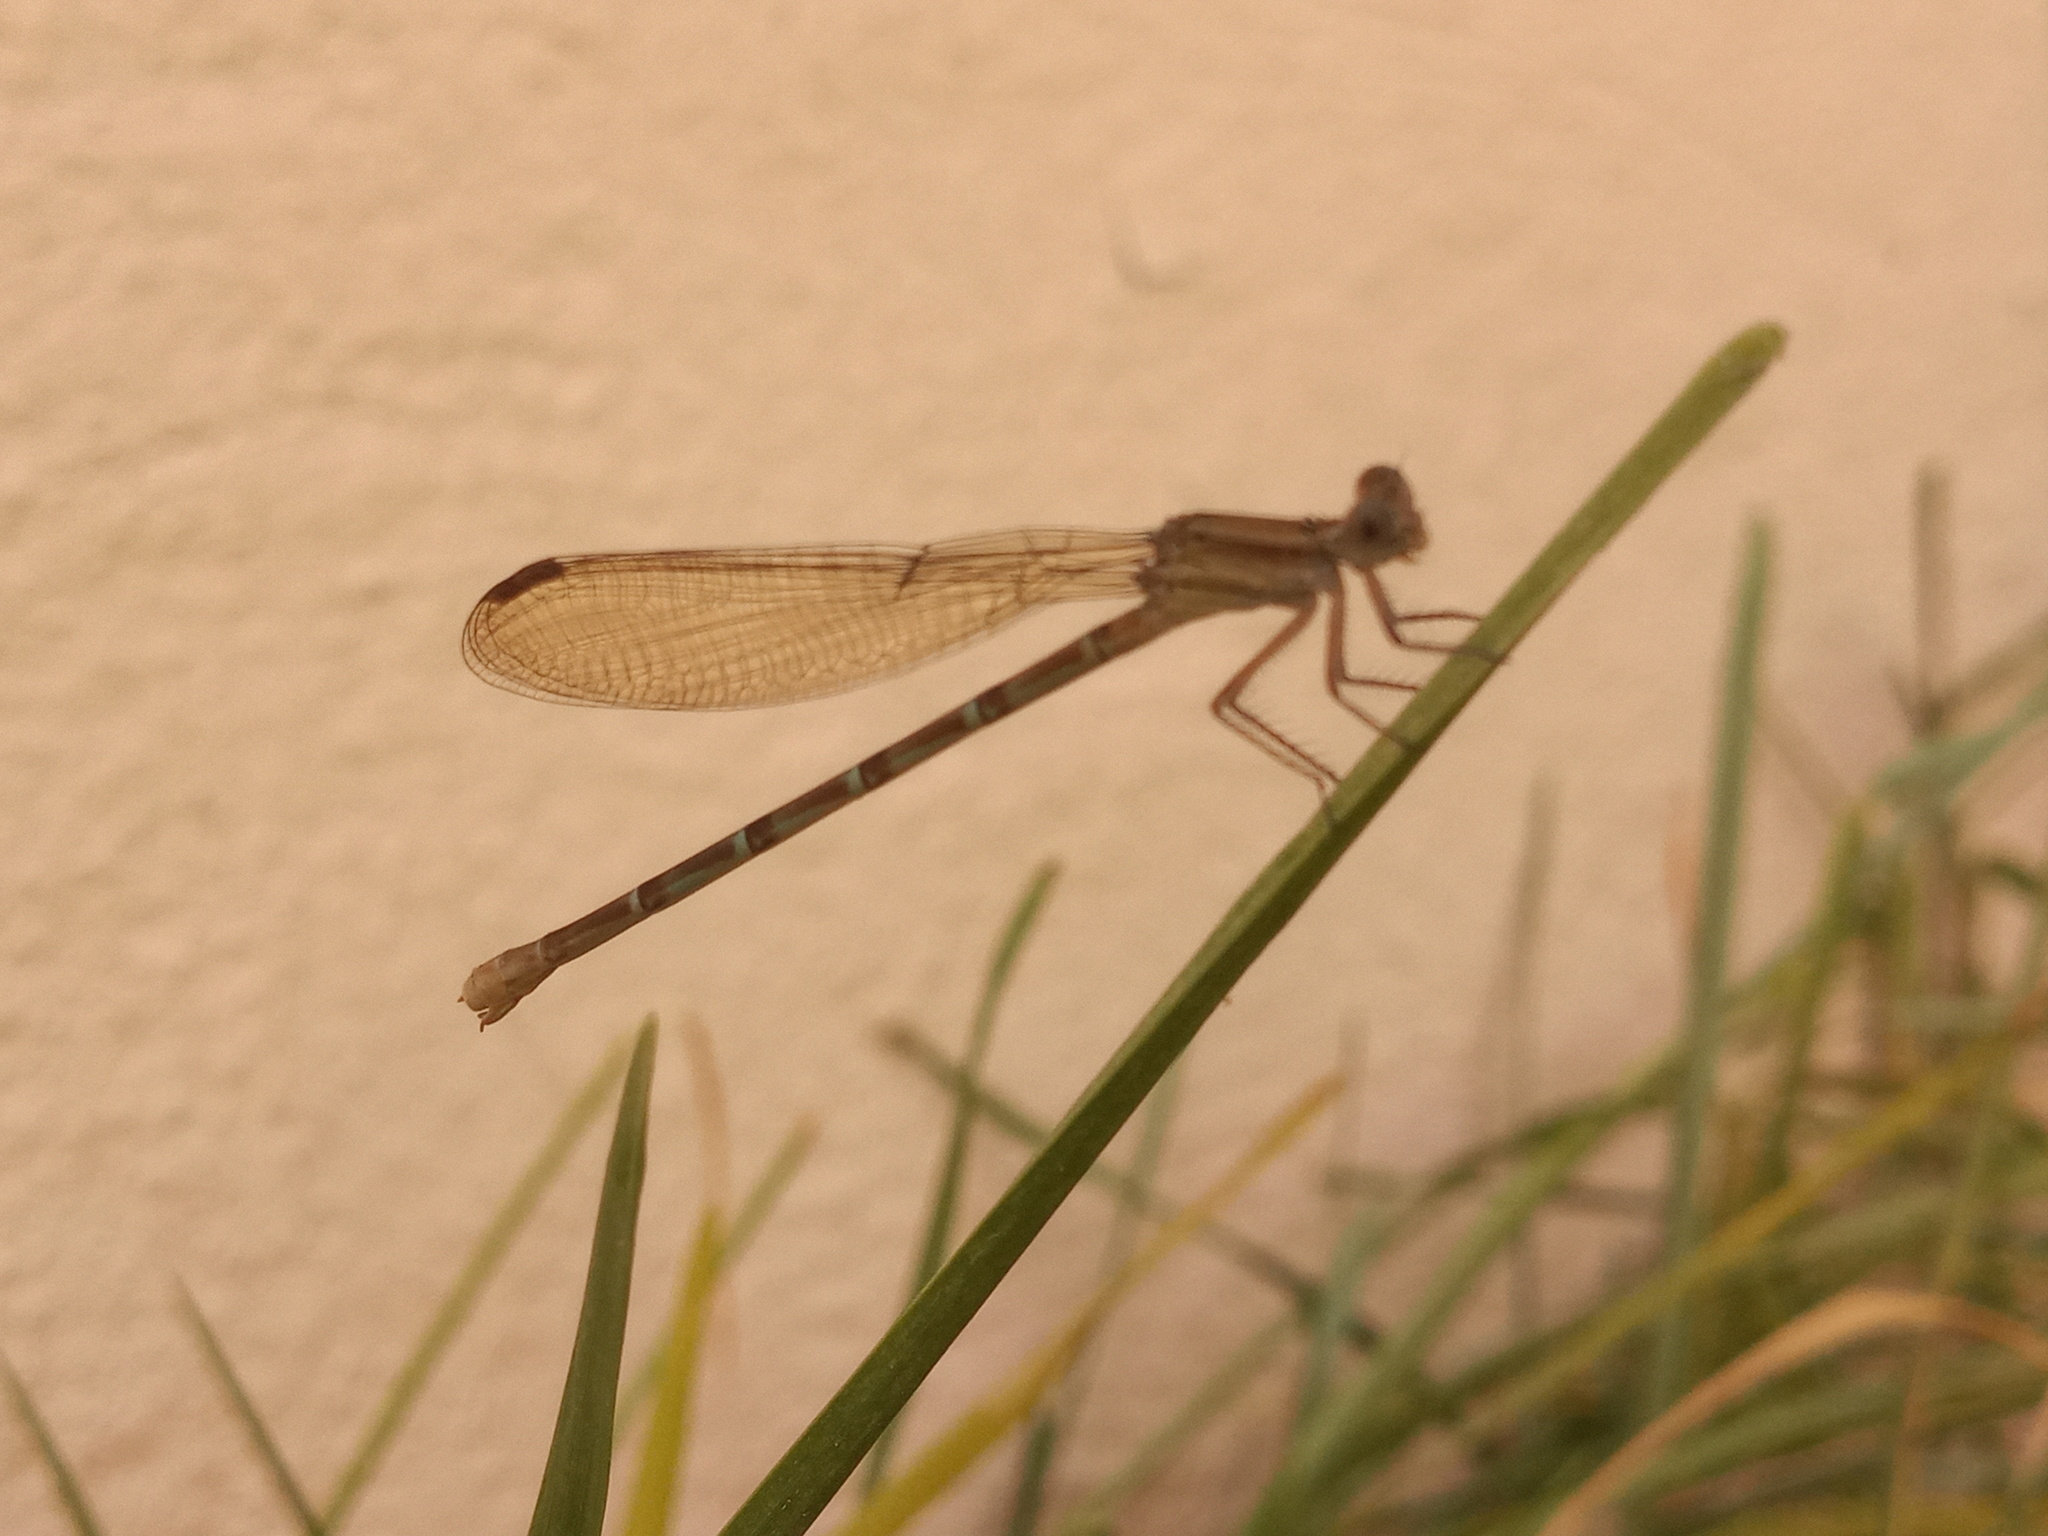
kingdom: Animalia
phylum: Arthropoda
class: Insecta
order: Odonata
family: Coenagrionidae
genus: Argia
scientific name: Argia sedula
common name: Blue-ringed dancer
